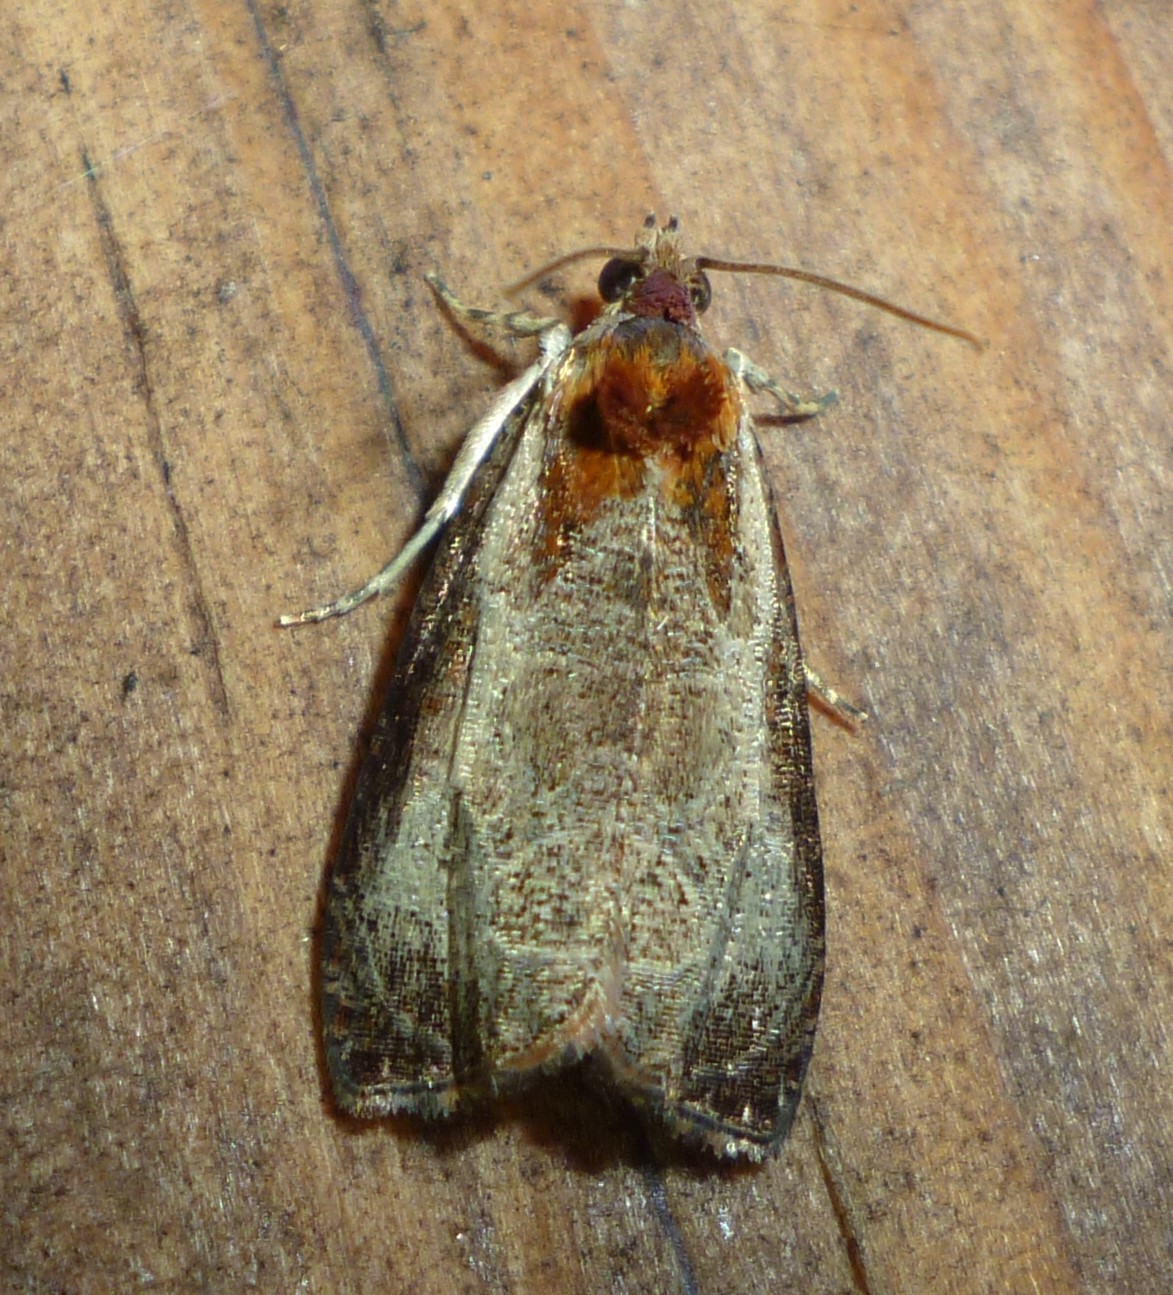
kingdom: Animalia
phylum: Arthropoda
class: Insecta
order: Lepidoptera
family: Tortricidae
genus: Olethreutes
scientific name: Olethreutes inornatana
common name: Inornate olethreutes moth
